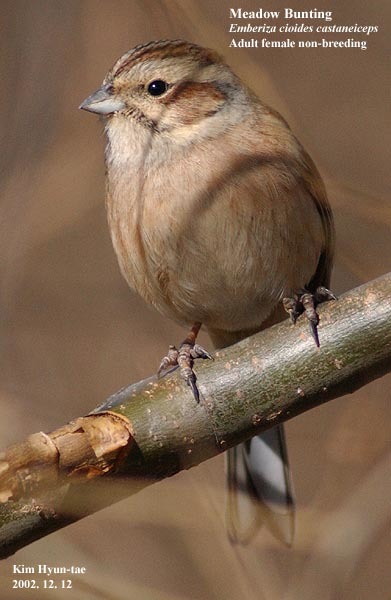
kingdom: Animalia
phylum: Chordata
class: Aves
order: Passeriformes
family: Emberizidae
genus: Emberiza
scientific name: Emberiza cioides
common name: Meadow bunting
